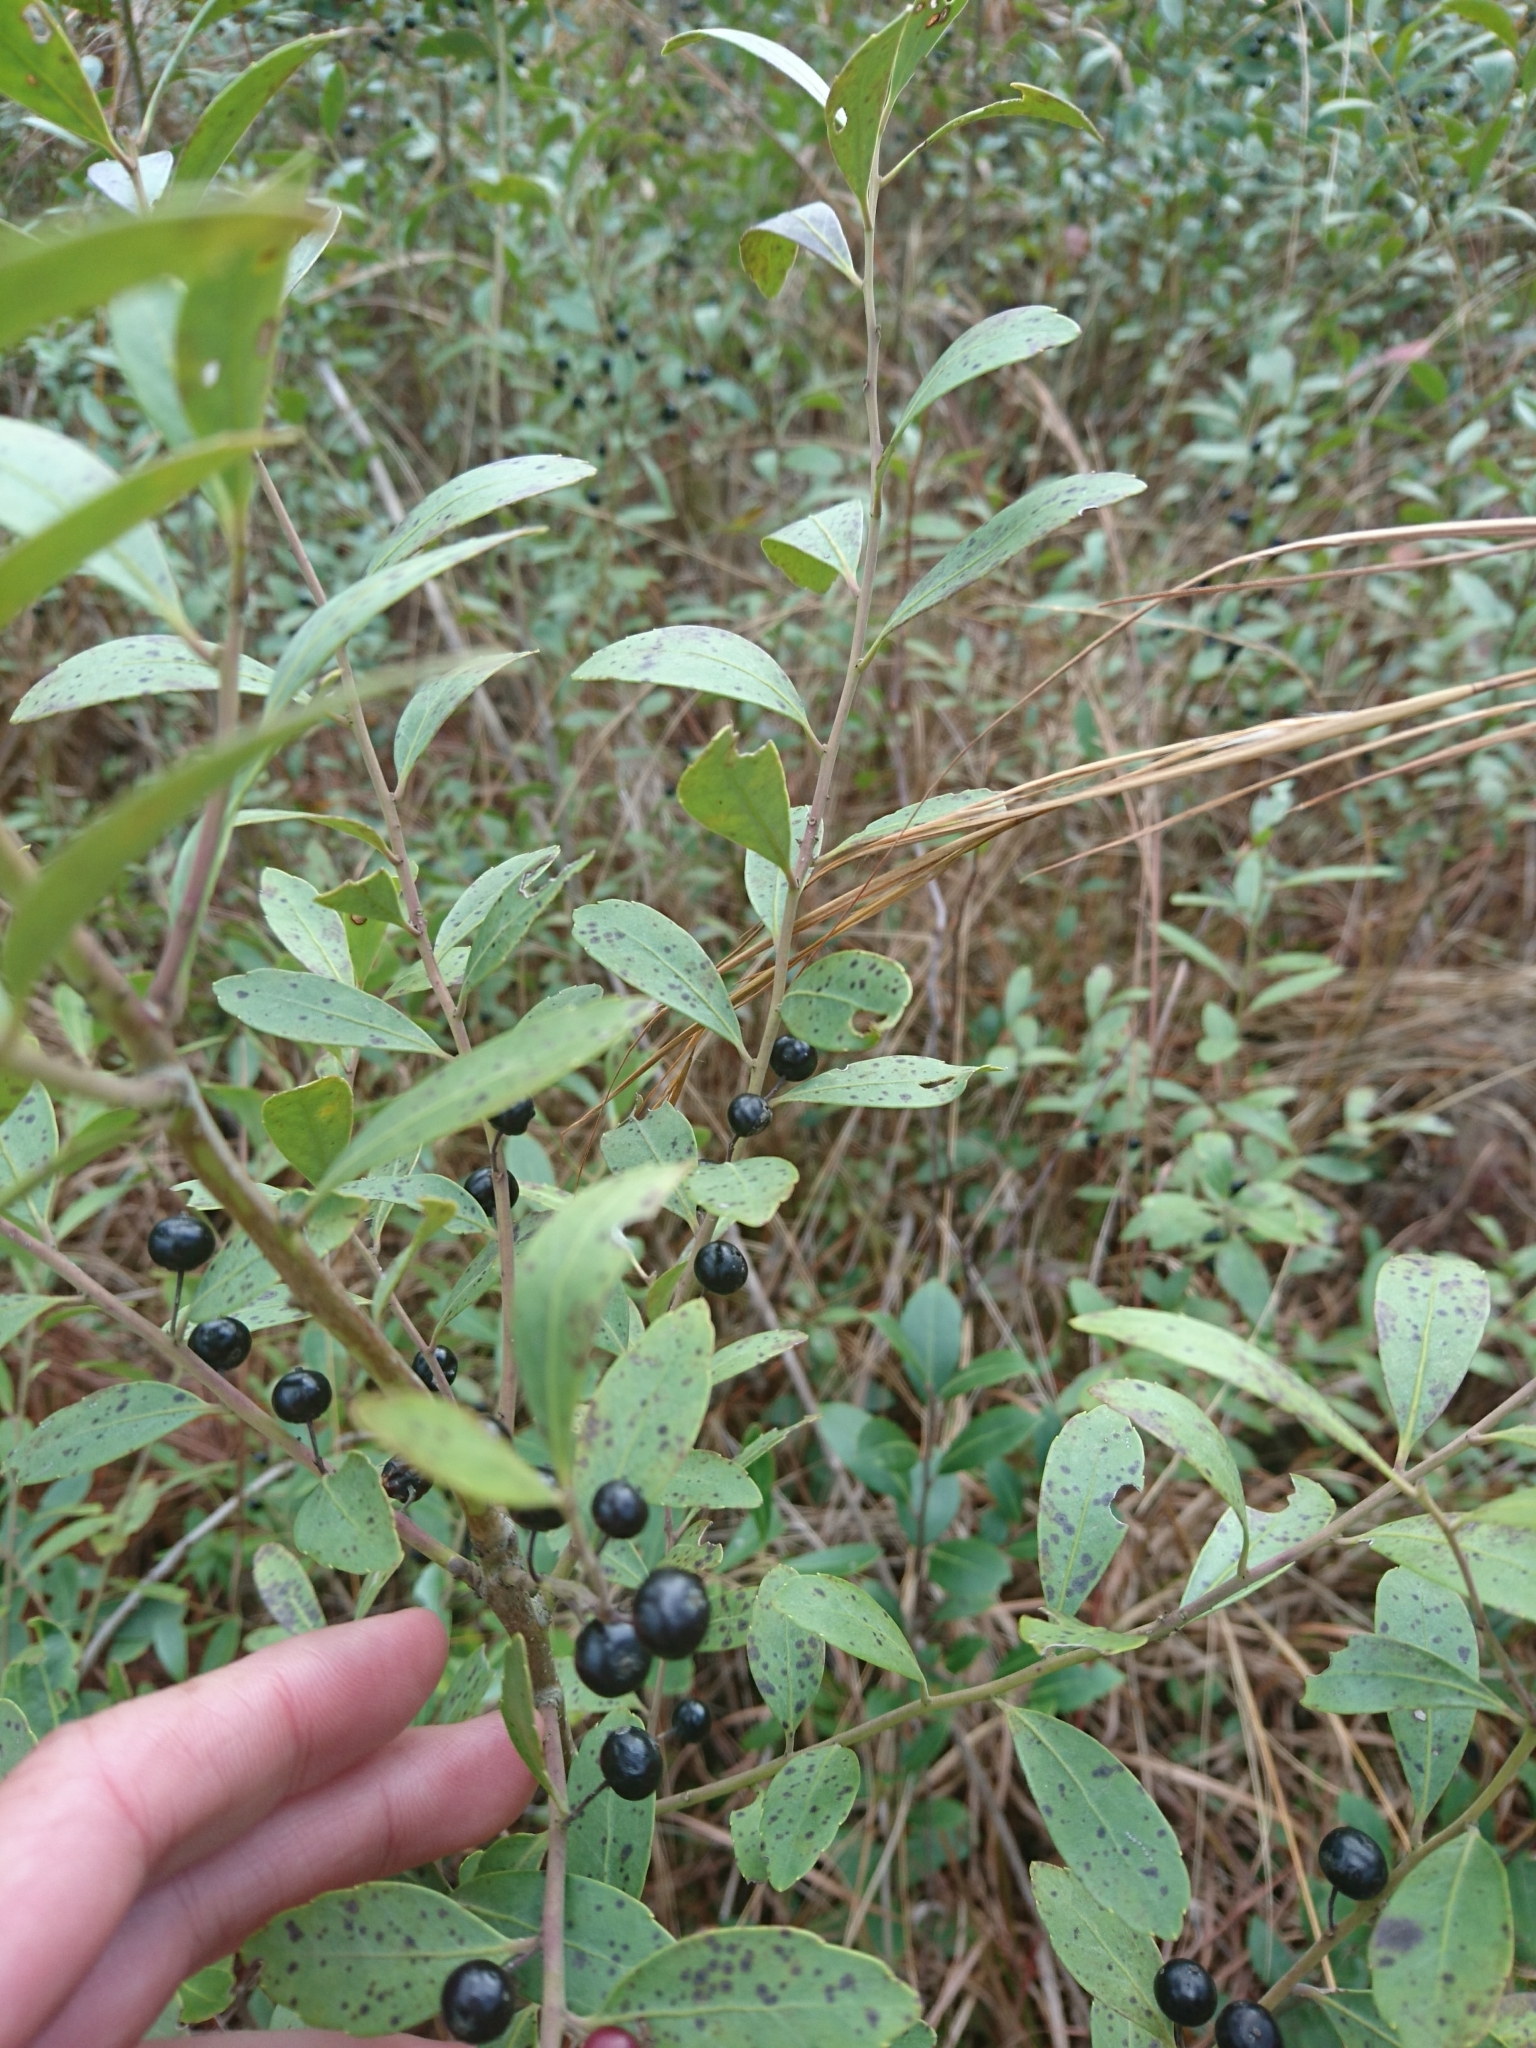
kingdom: Plantae
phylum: Tracheophyta
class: Magnoliopsida
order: Aquifoliales
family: Aquifoliaceae
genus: Ilex
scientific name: Ilex glabra
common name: Bitter gallberry
